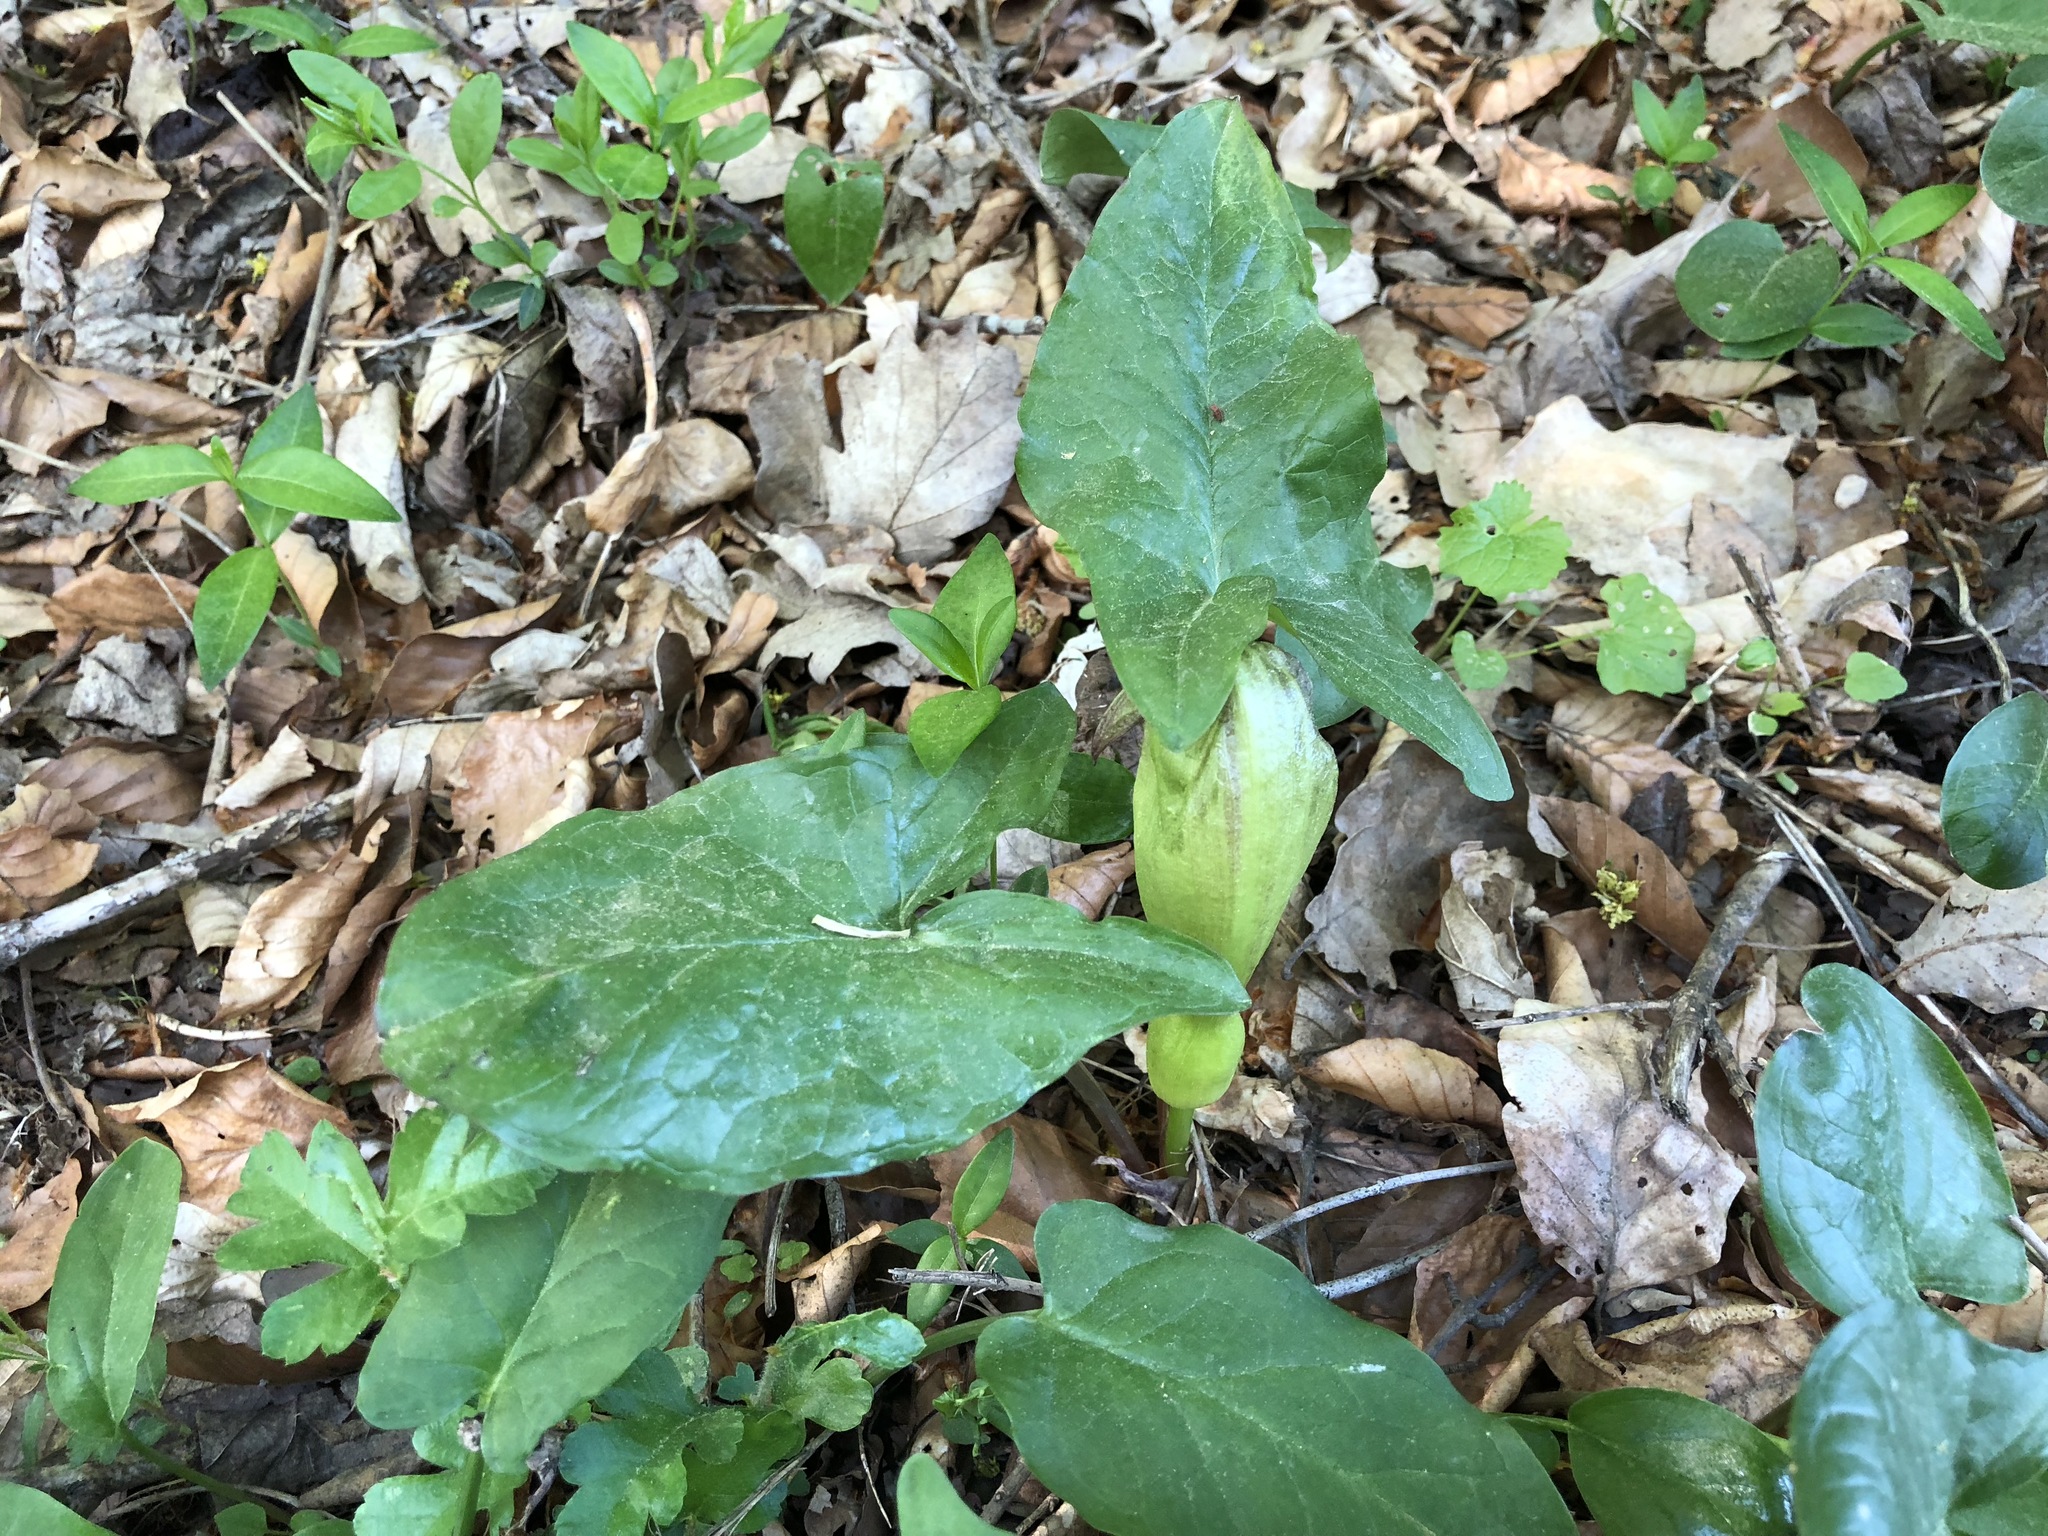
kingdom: Plantae
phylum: Tracheophyta
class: Liliopsida
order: Alismatales
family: Araceae
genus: Arum
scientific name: Arum maculatum
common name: Lords-and-ladies
